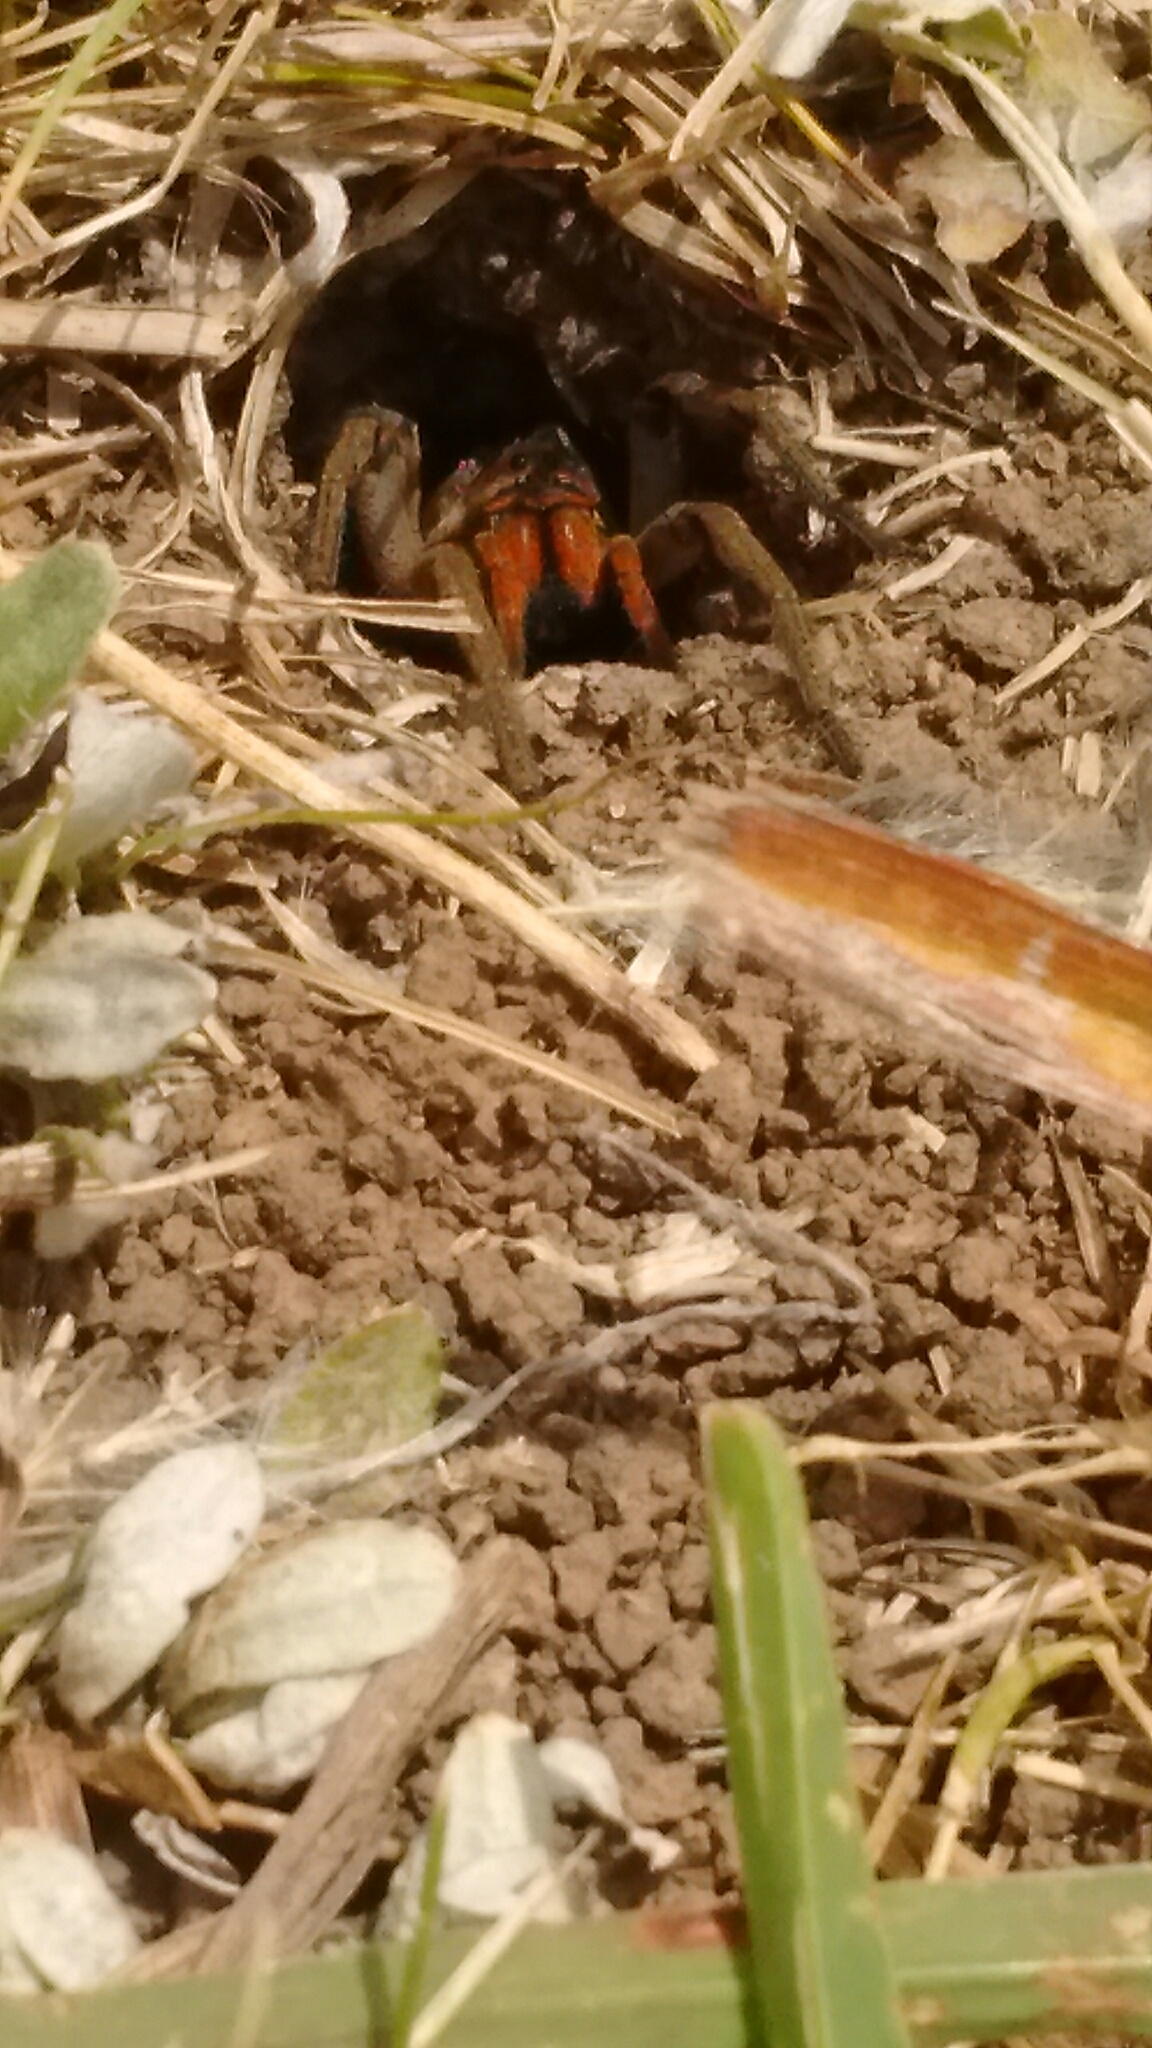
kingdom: Animalia
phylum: Arthropoda
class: Arachnida
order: Araneae
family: Lycosidae
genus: Lycosa
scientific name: Lycosa erythrognatha
